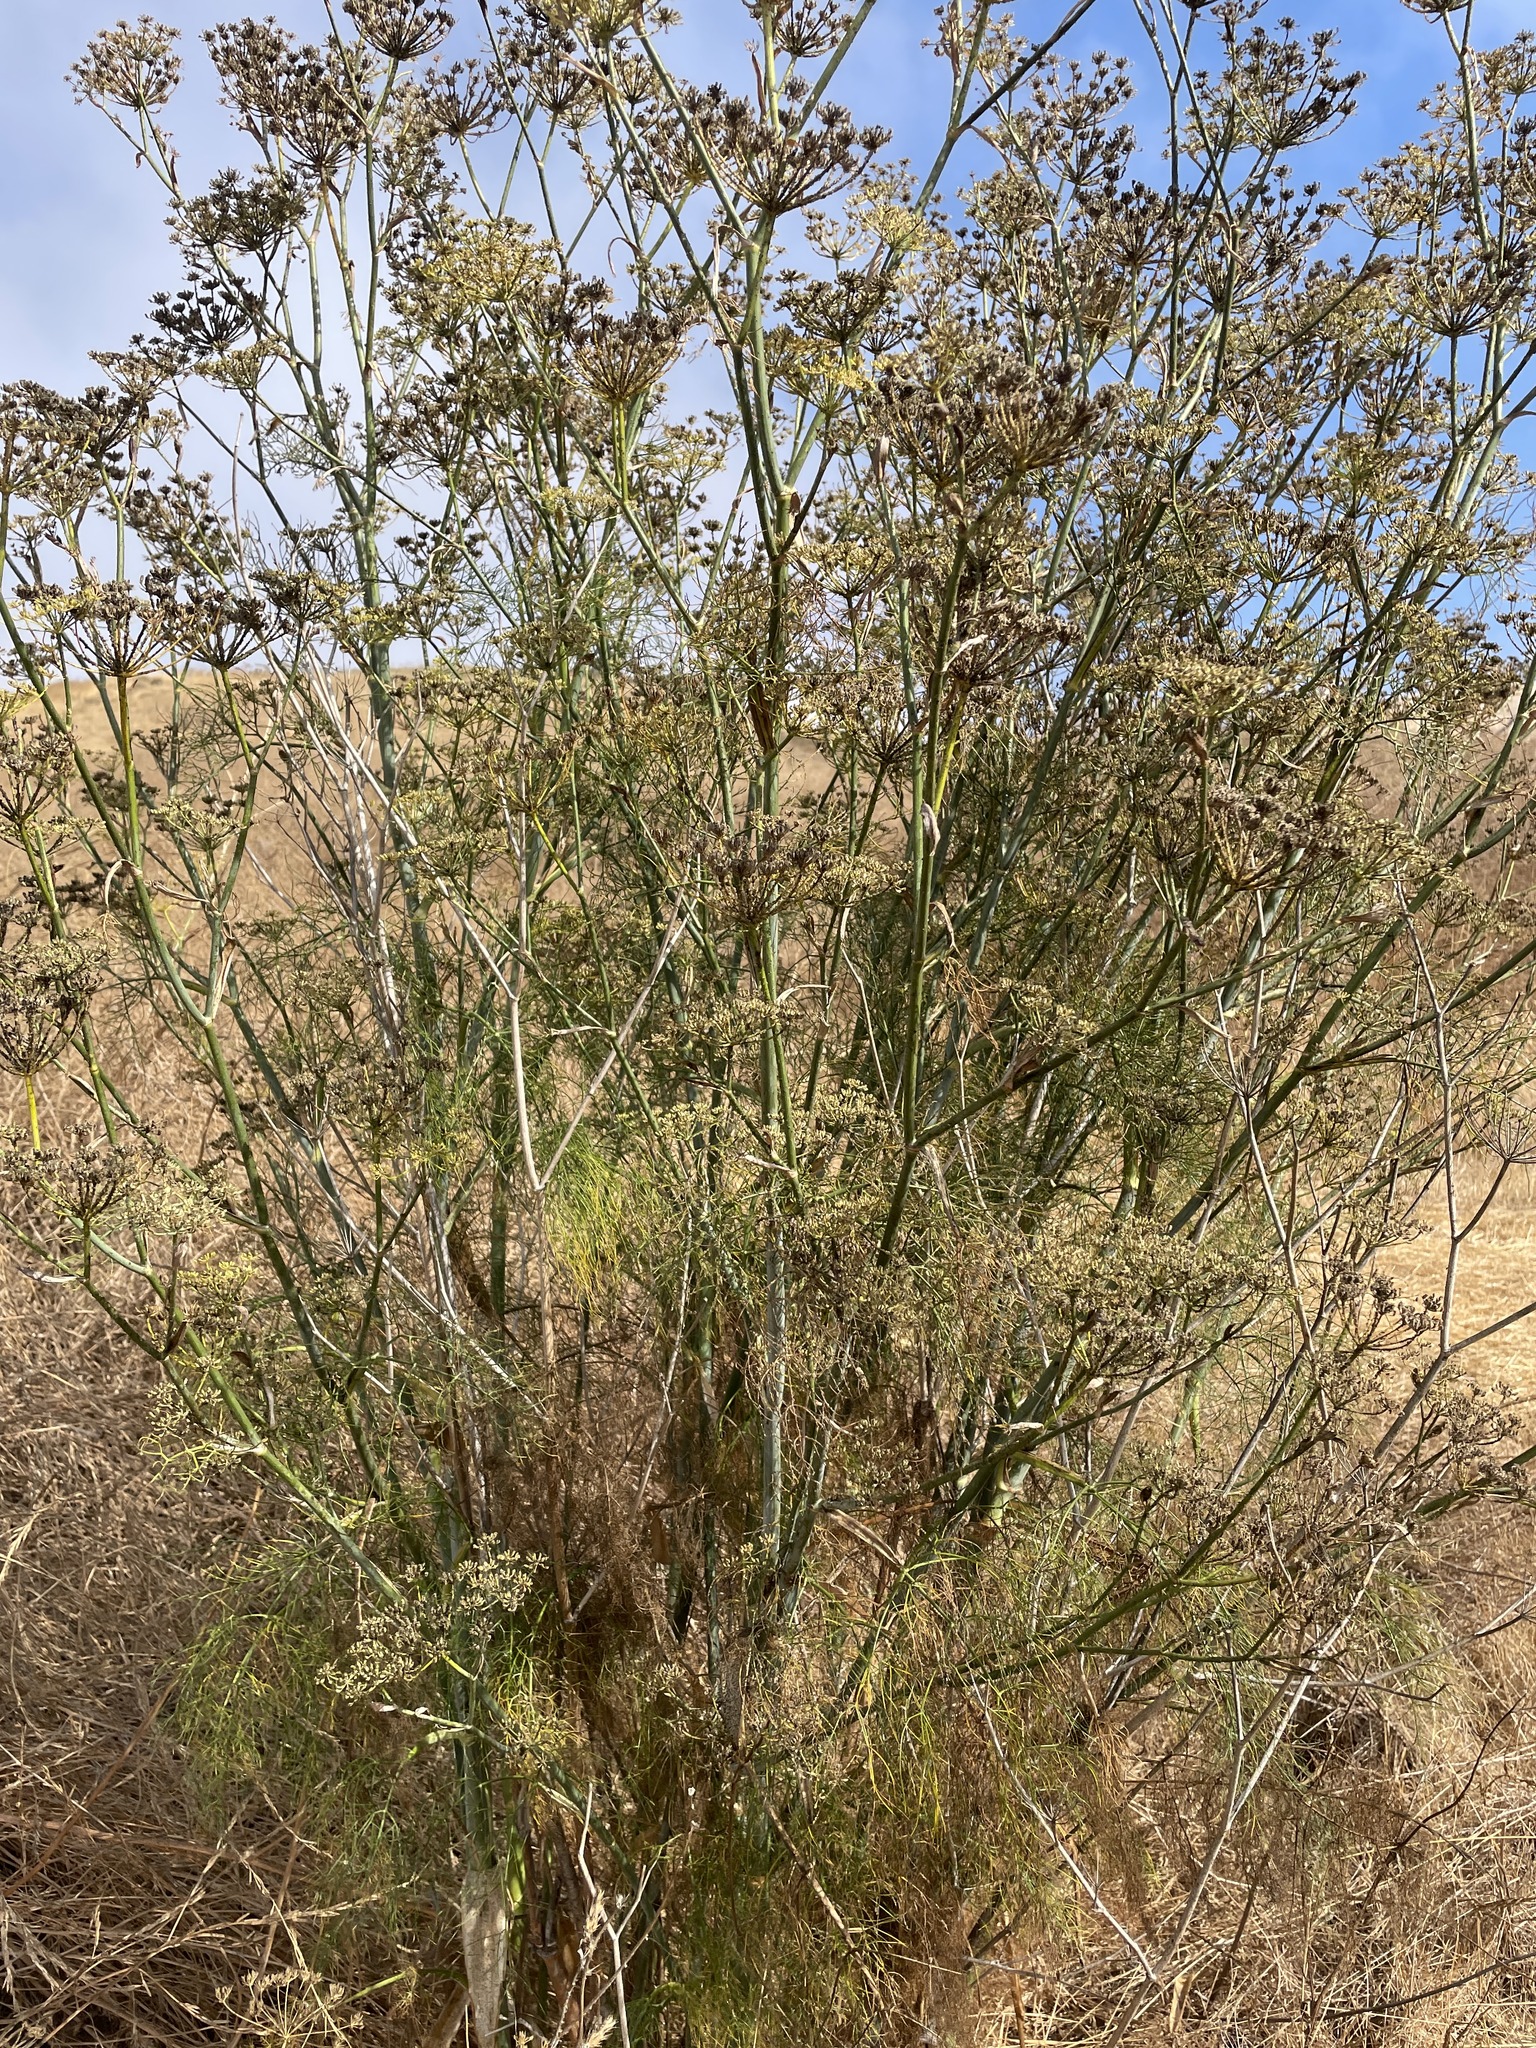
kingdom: Plantae
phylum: Tracheophyta
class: Magnoliopsida
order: Apiales
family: Apiaceae
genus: Foeniculum
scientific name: Foeniculum vulgare
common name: Fennel
